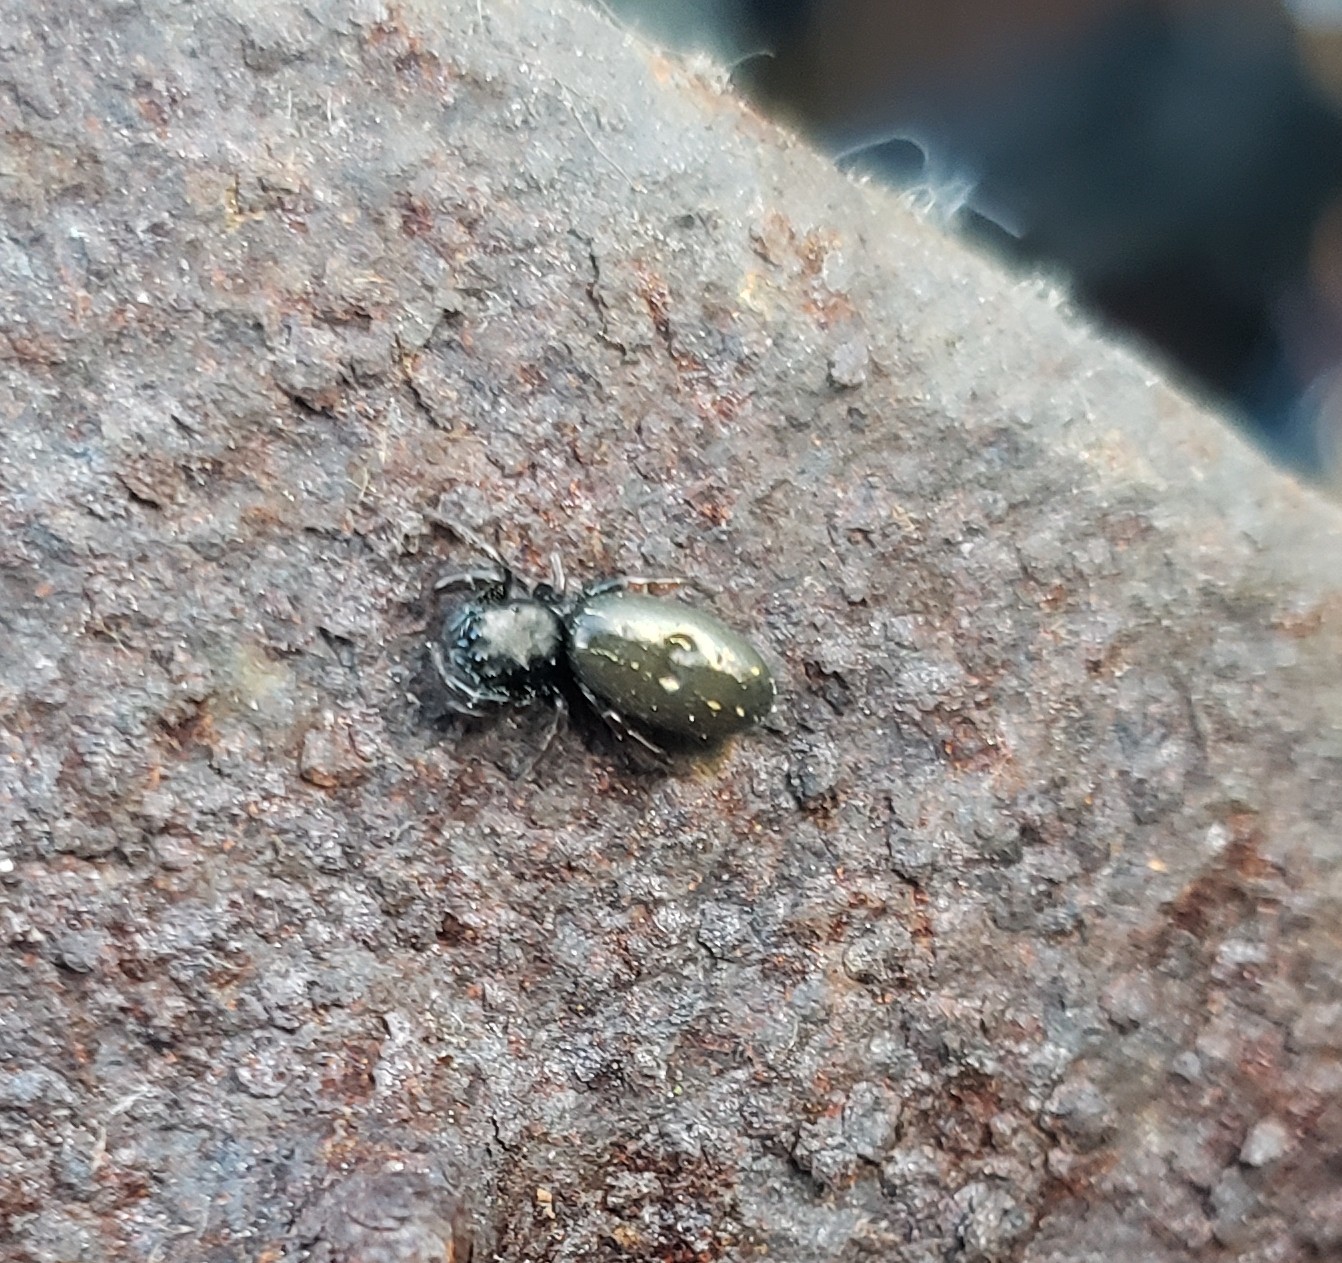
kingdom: Animalia
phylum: Arthropoda
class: Arachnida
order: Araneae
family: Salticidae
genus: Metacyrba
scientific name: Metacyrba taeniola
